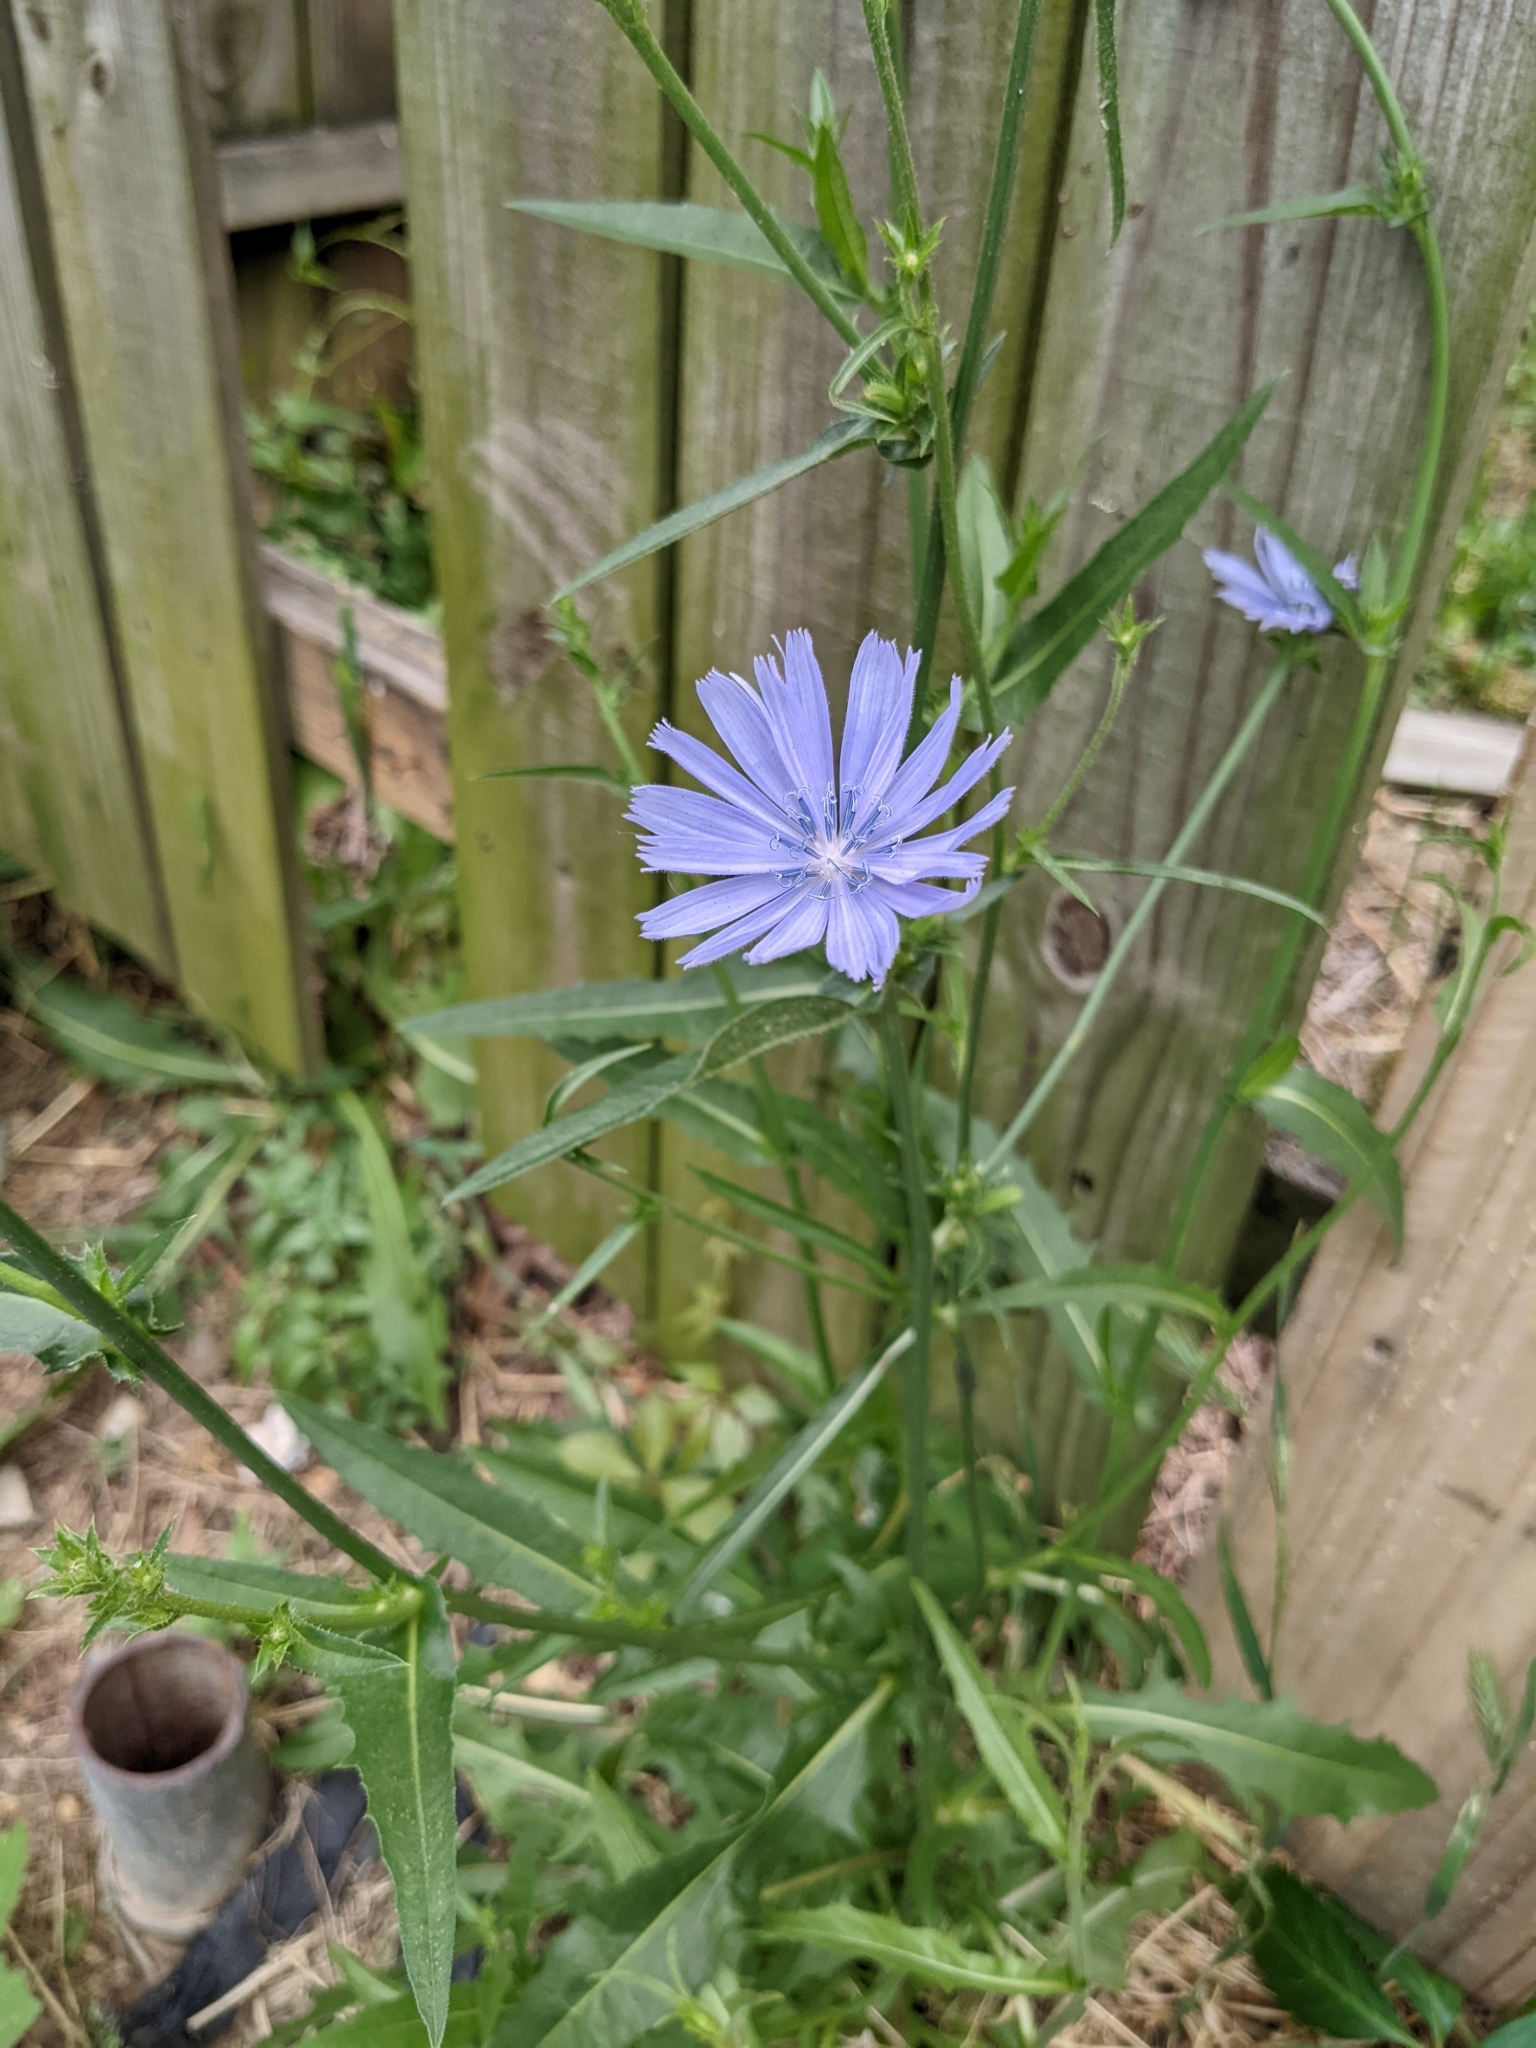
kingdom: Plantae
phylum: Tracheophyta
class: Magnoliopsida
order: Asterales
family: Asteraceae
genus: Cichorium
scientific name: Cichorium intybus
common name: Chicory
